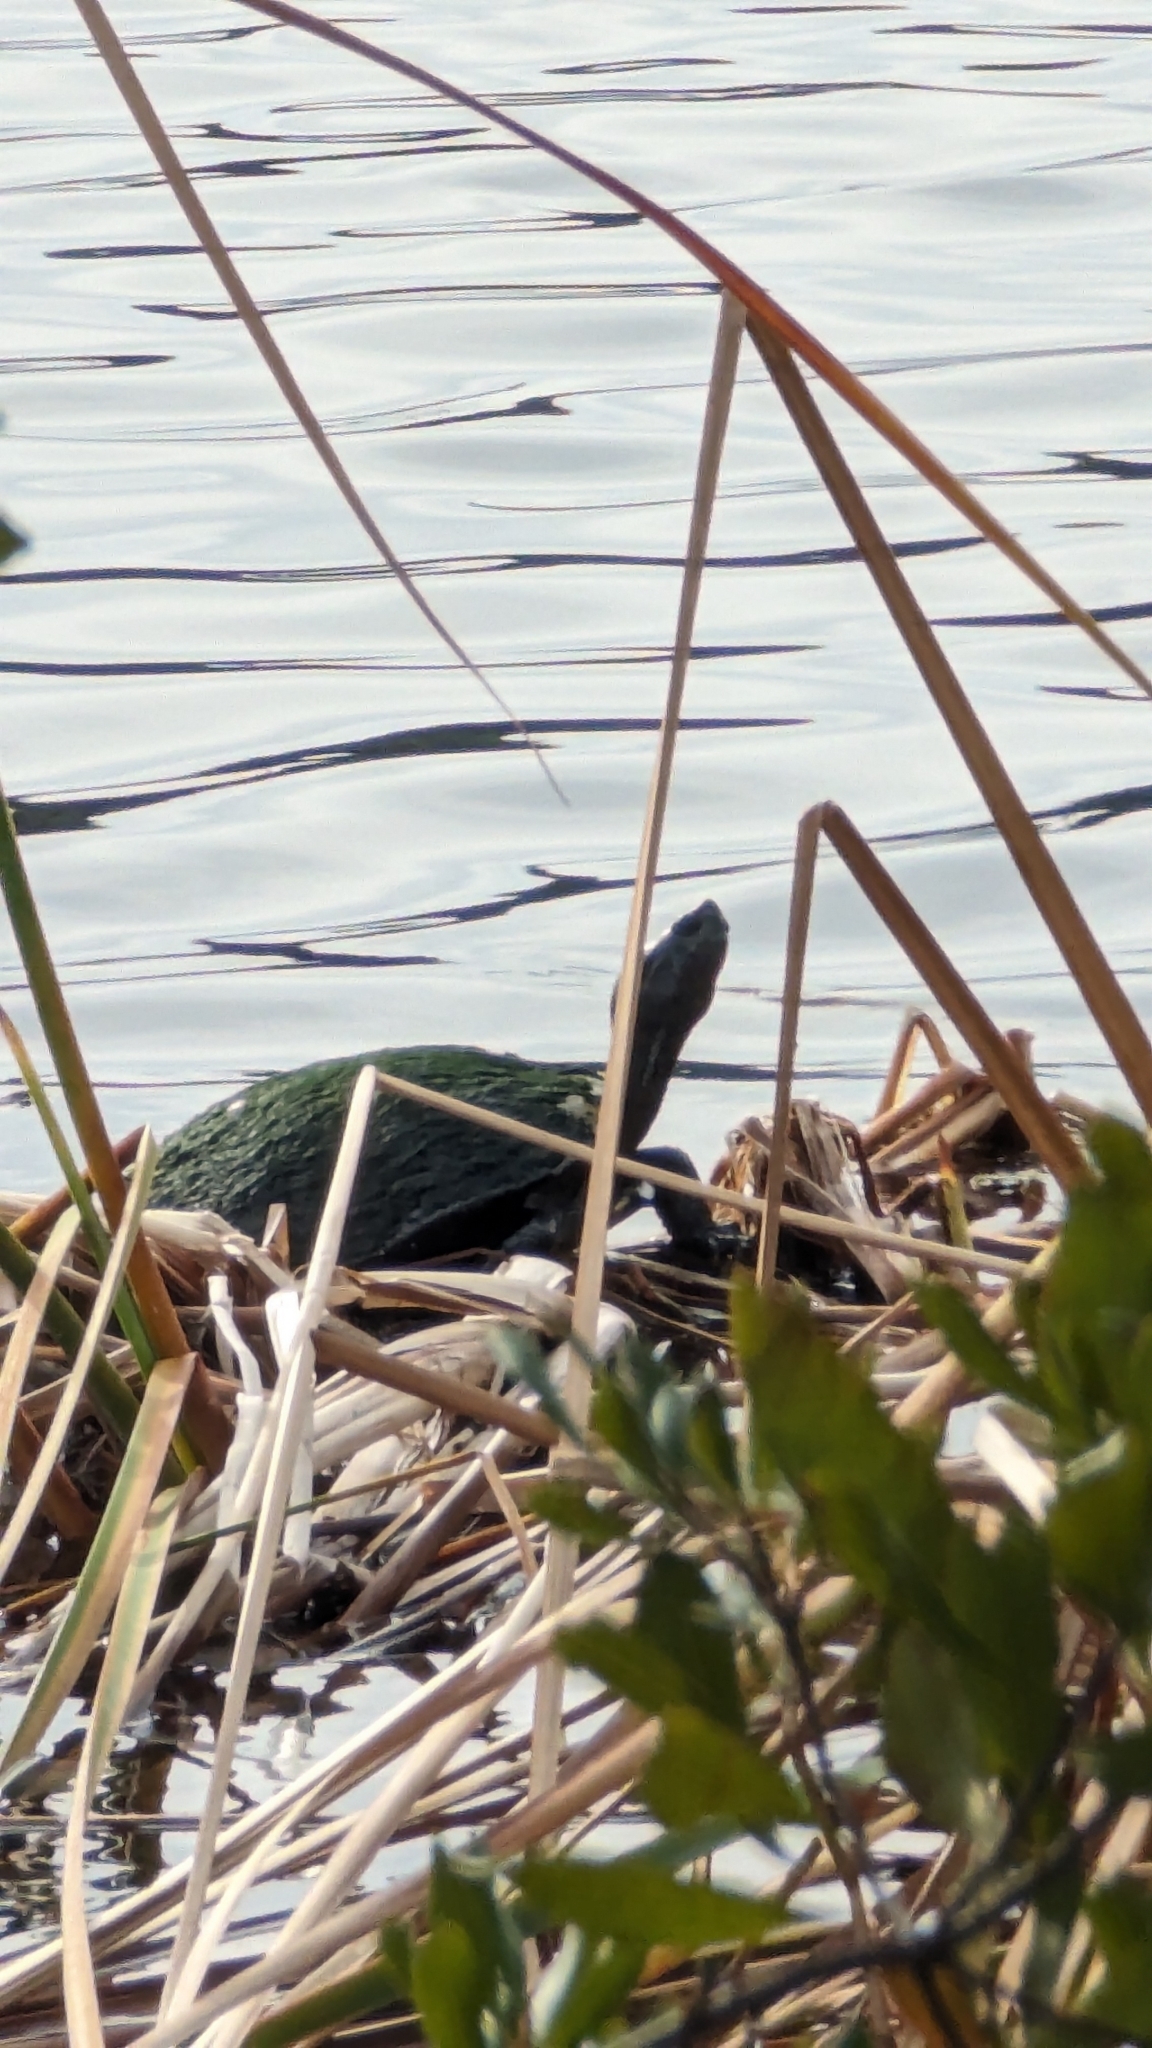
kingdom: Animalia
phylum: Chordata
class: Testudines
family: Emydidae
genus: Trachemys
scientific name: Trachemys scripta
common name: Slider
